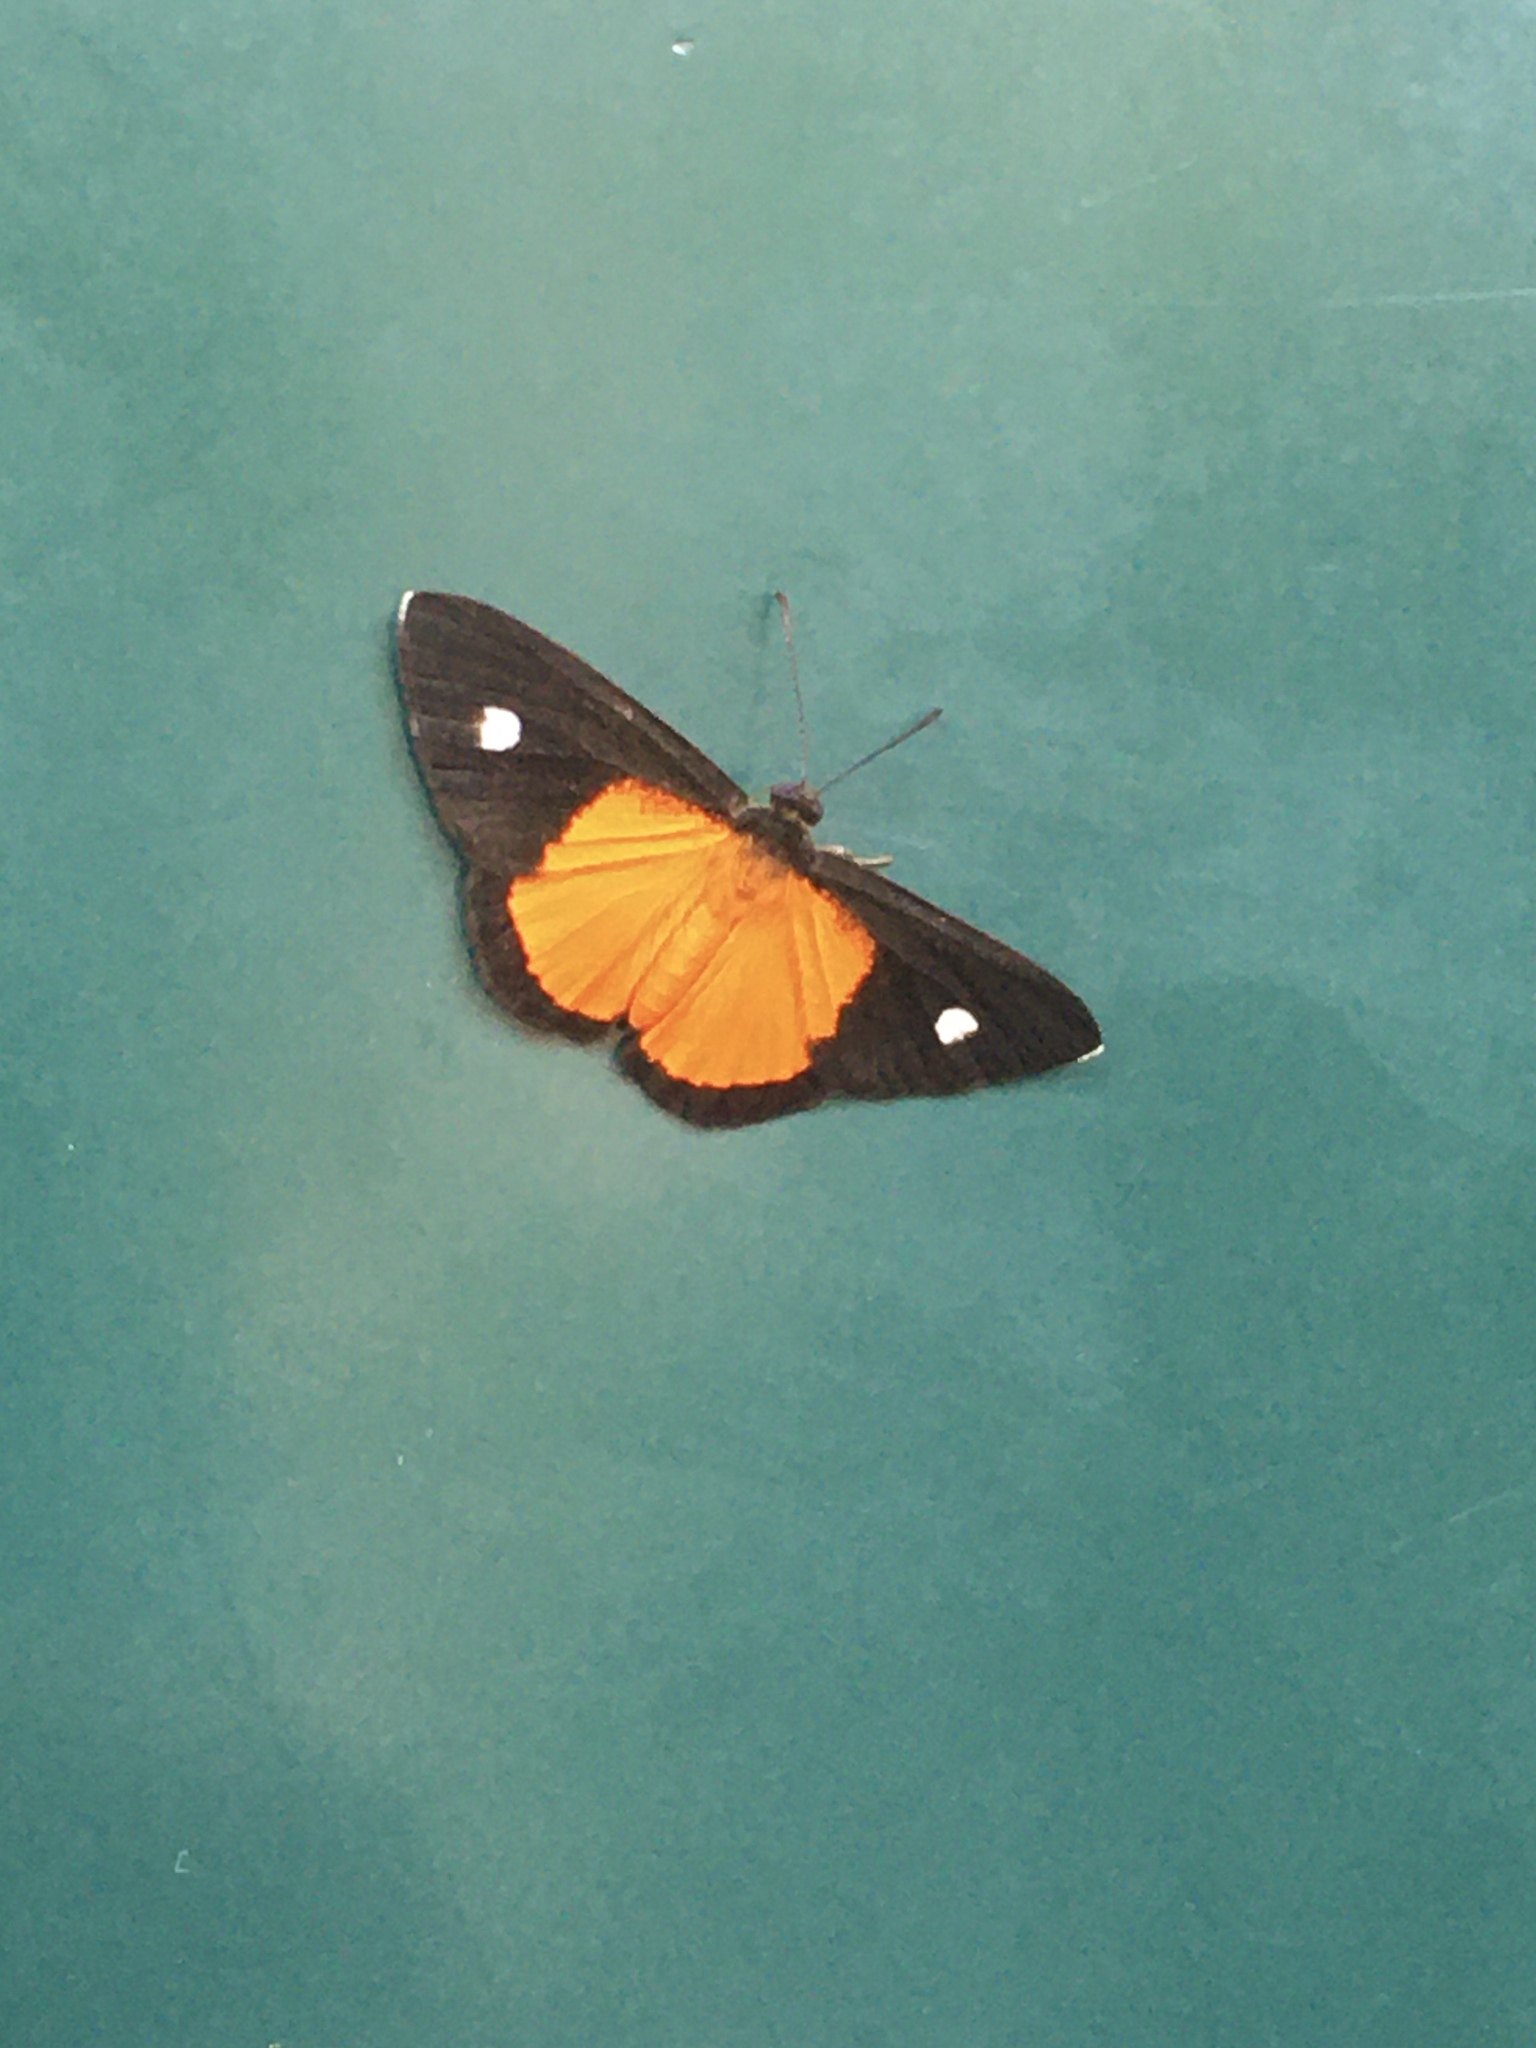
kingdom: Animalia
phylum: Arthropoda
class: Insecta
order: Lepidoptera
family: Lycaenidae
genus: Mesene
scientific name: Mesene hya
